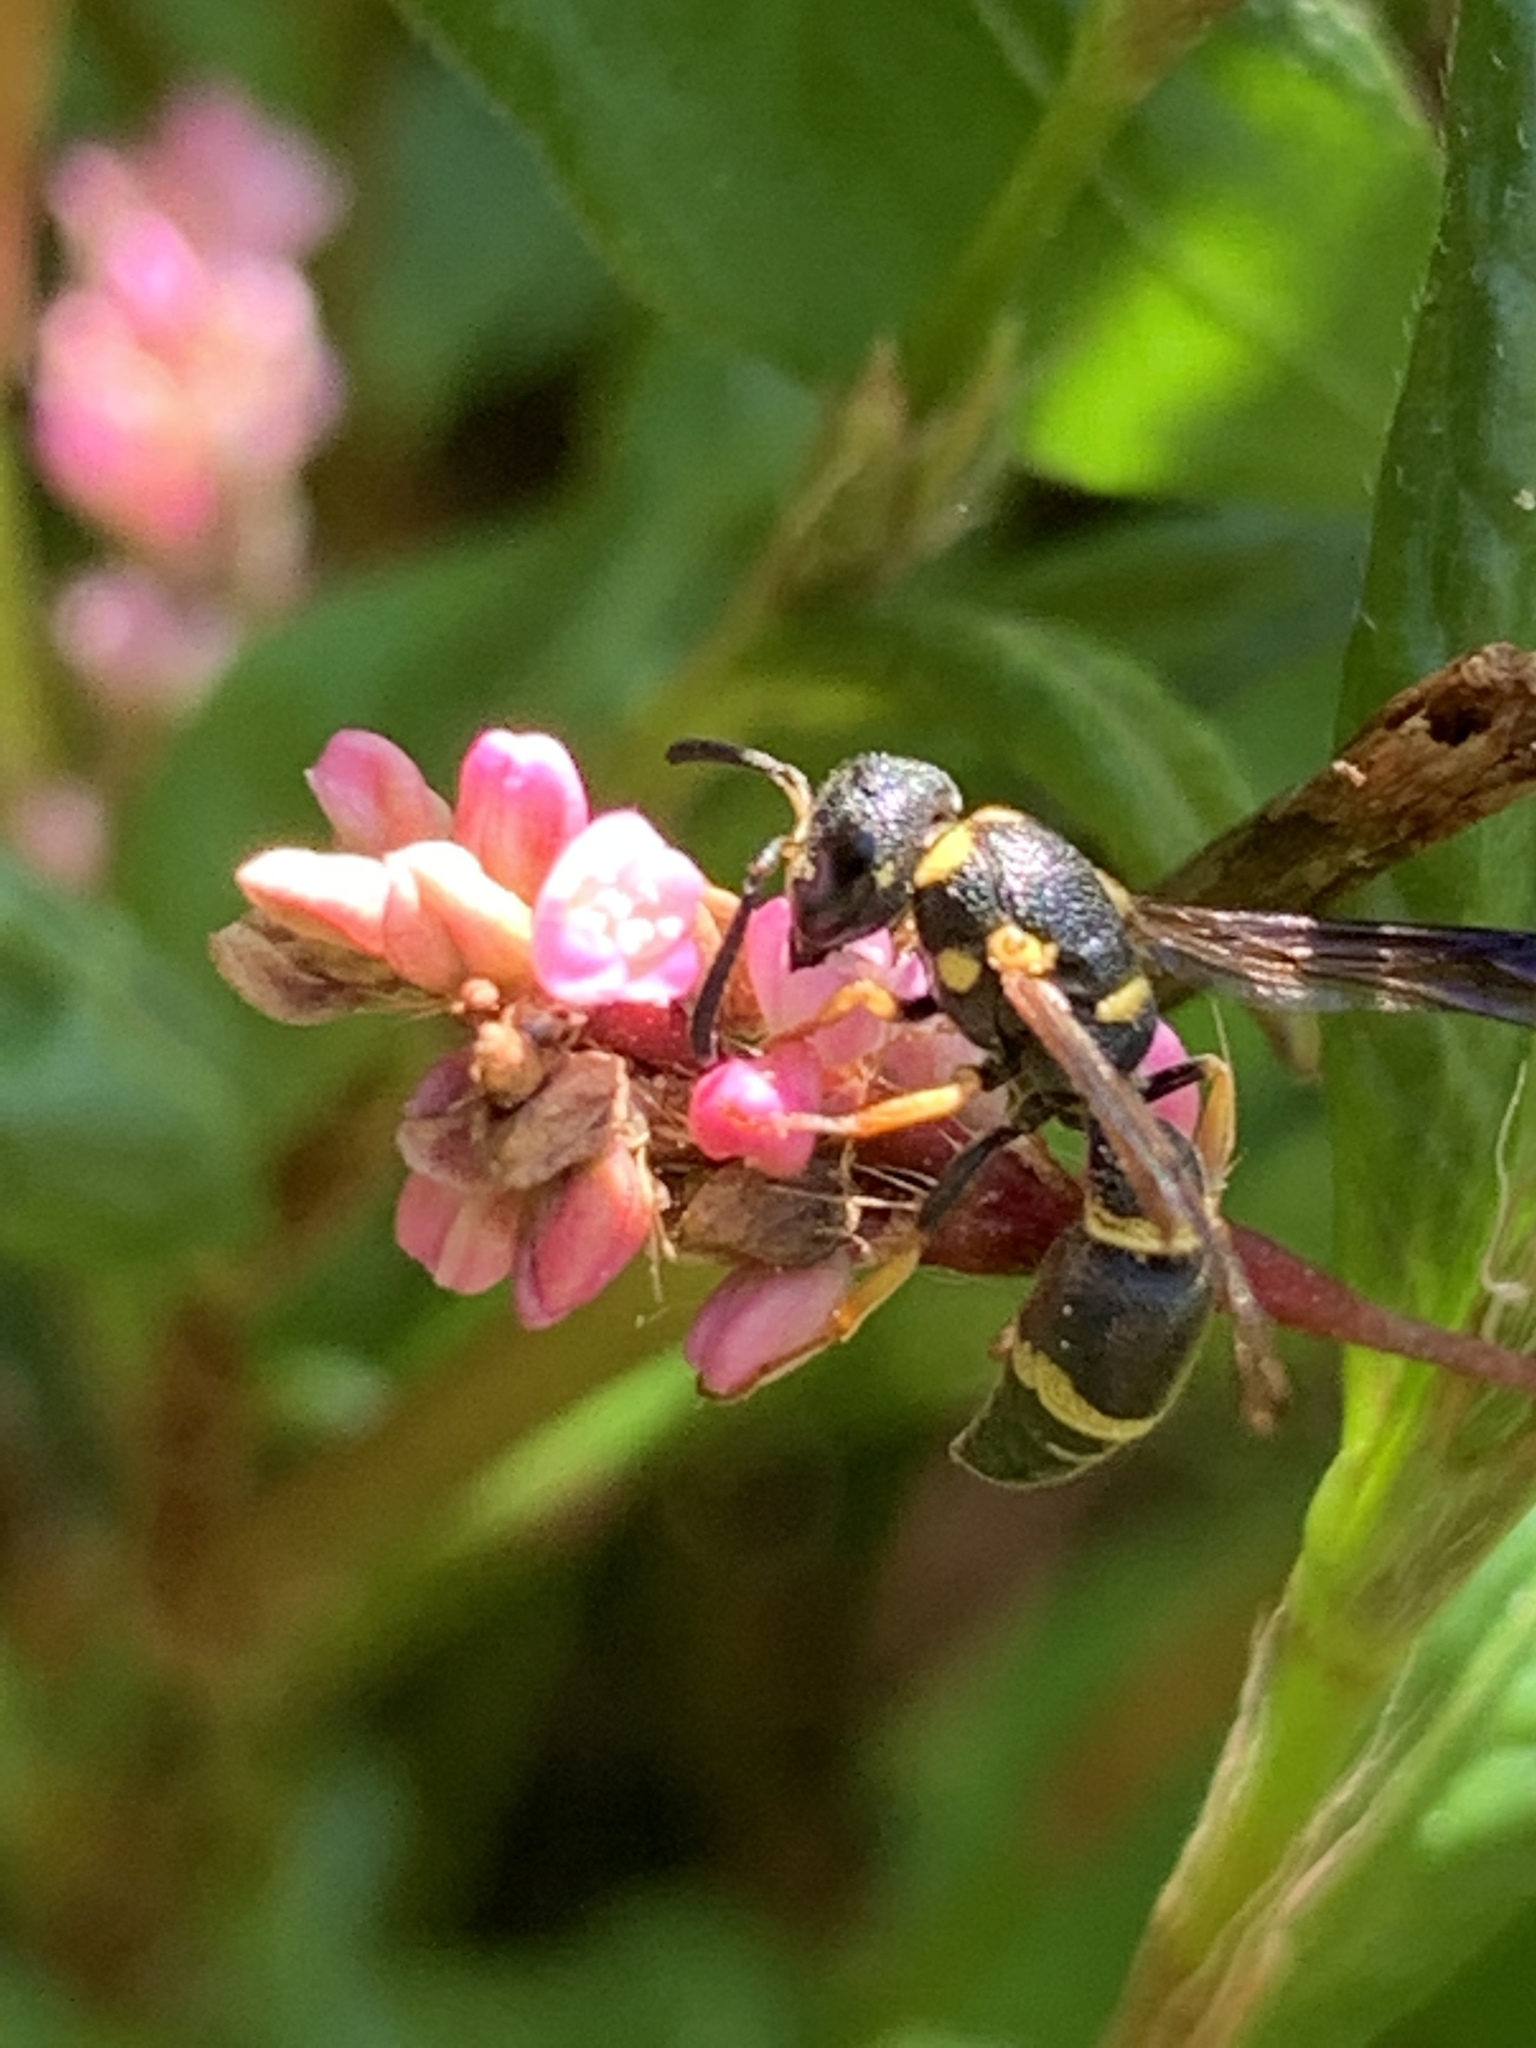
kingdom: Animalia
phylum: Arthropoda
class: Insecta
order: Hymenoptera
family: Eumenidae
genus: Parancistrocerus
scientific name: Parancistrocerus perennis
